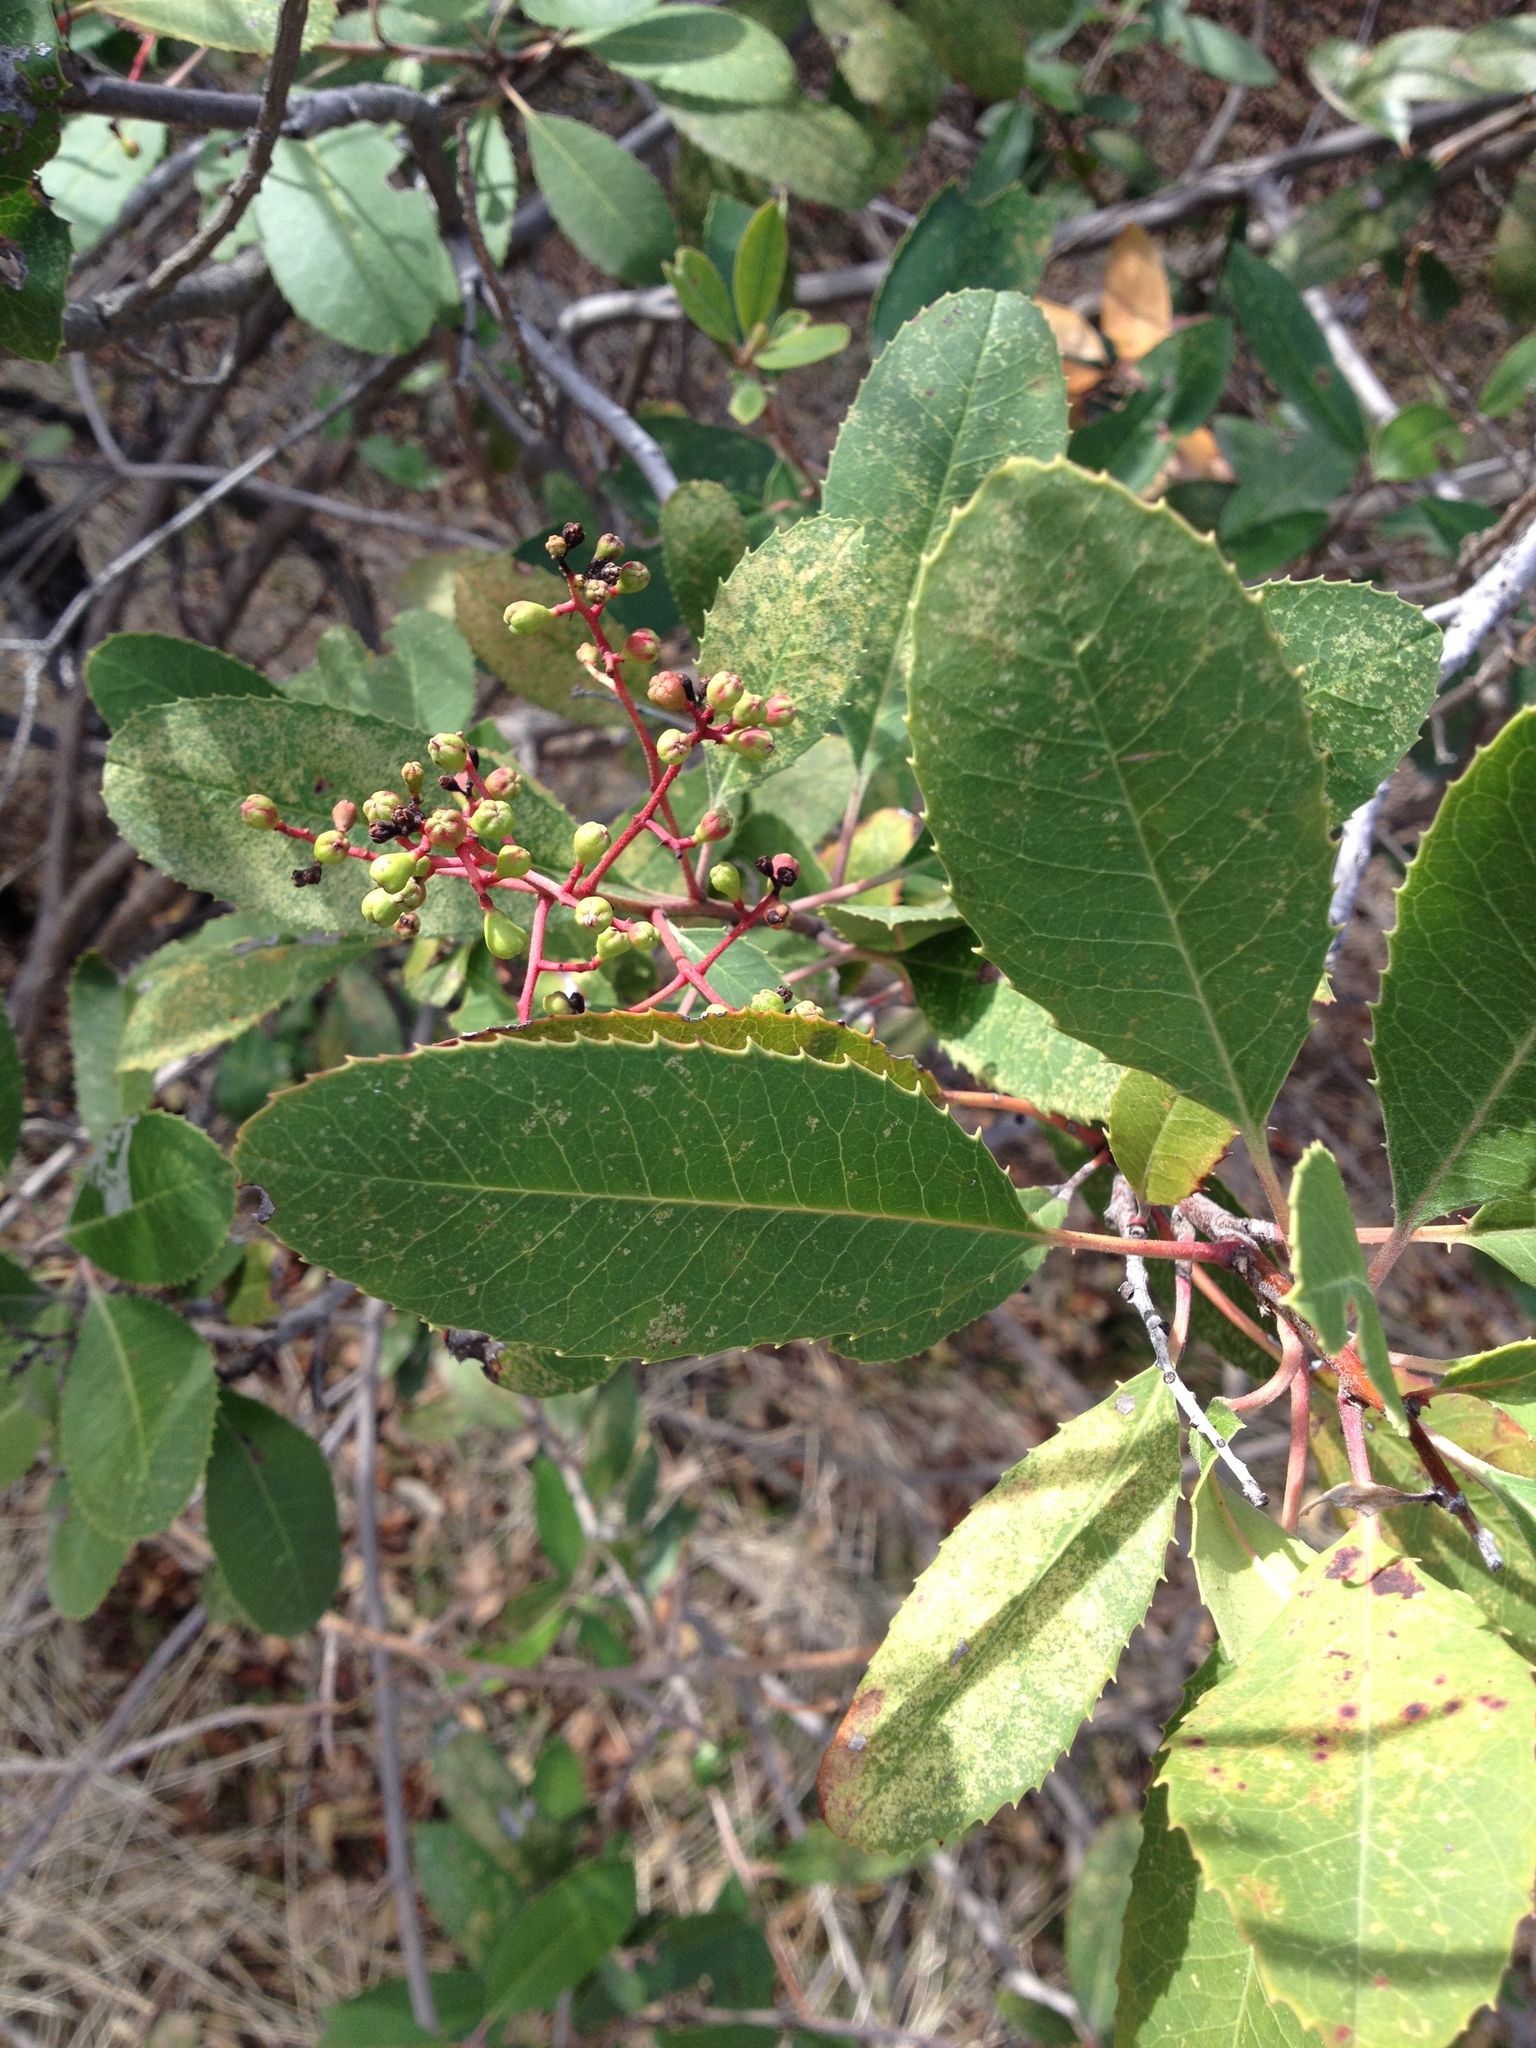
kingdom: Plantae
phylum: Tracheophyta
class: Magnoliopsida
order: Rosales
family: Rosaceae
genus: Heteromeles
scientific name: Heteromeles arbutifolia
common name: California-holly
